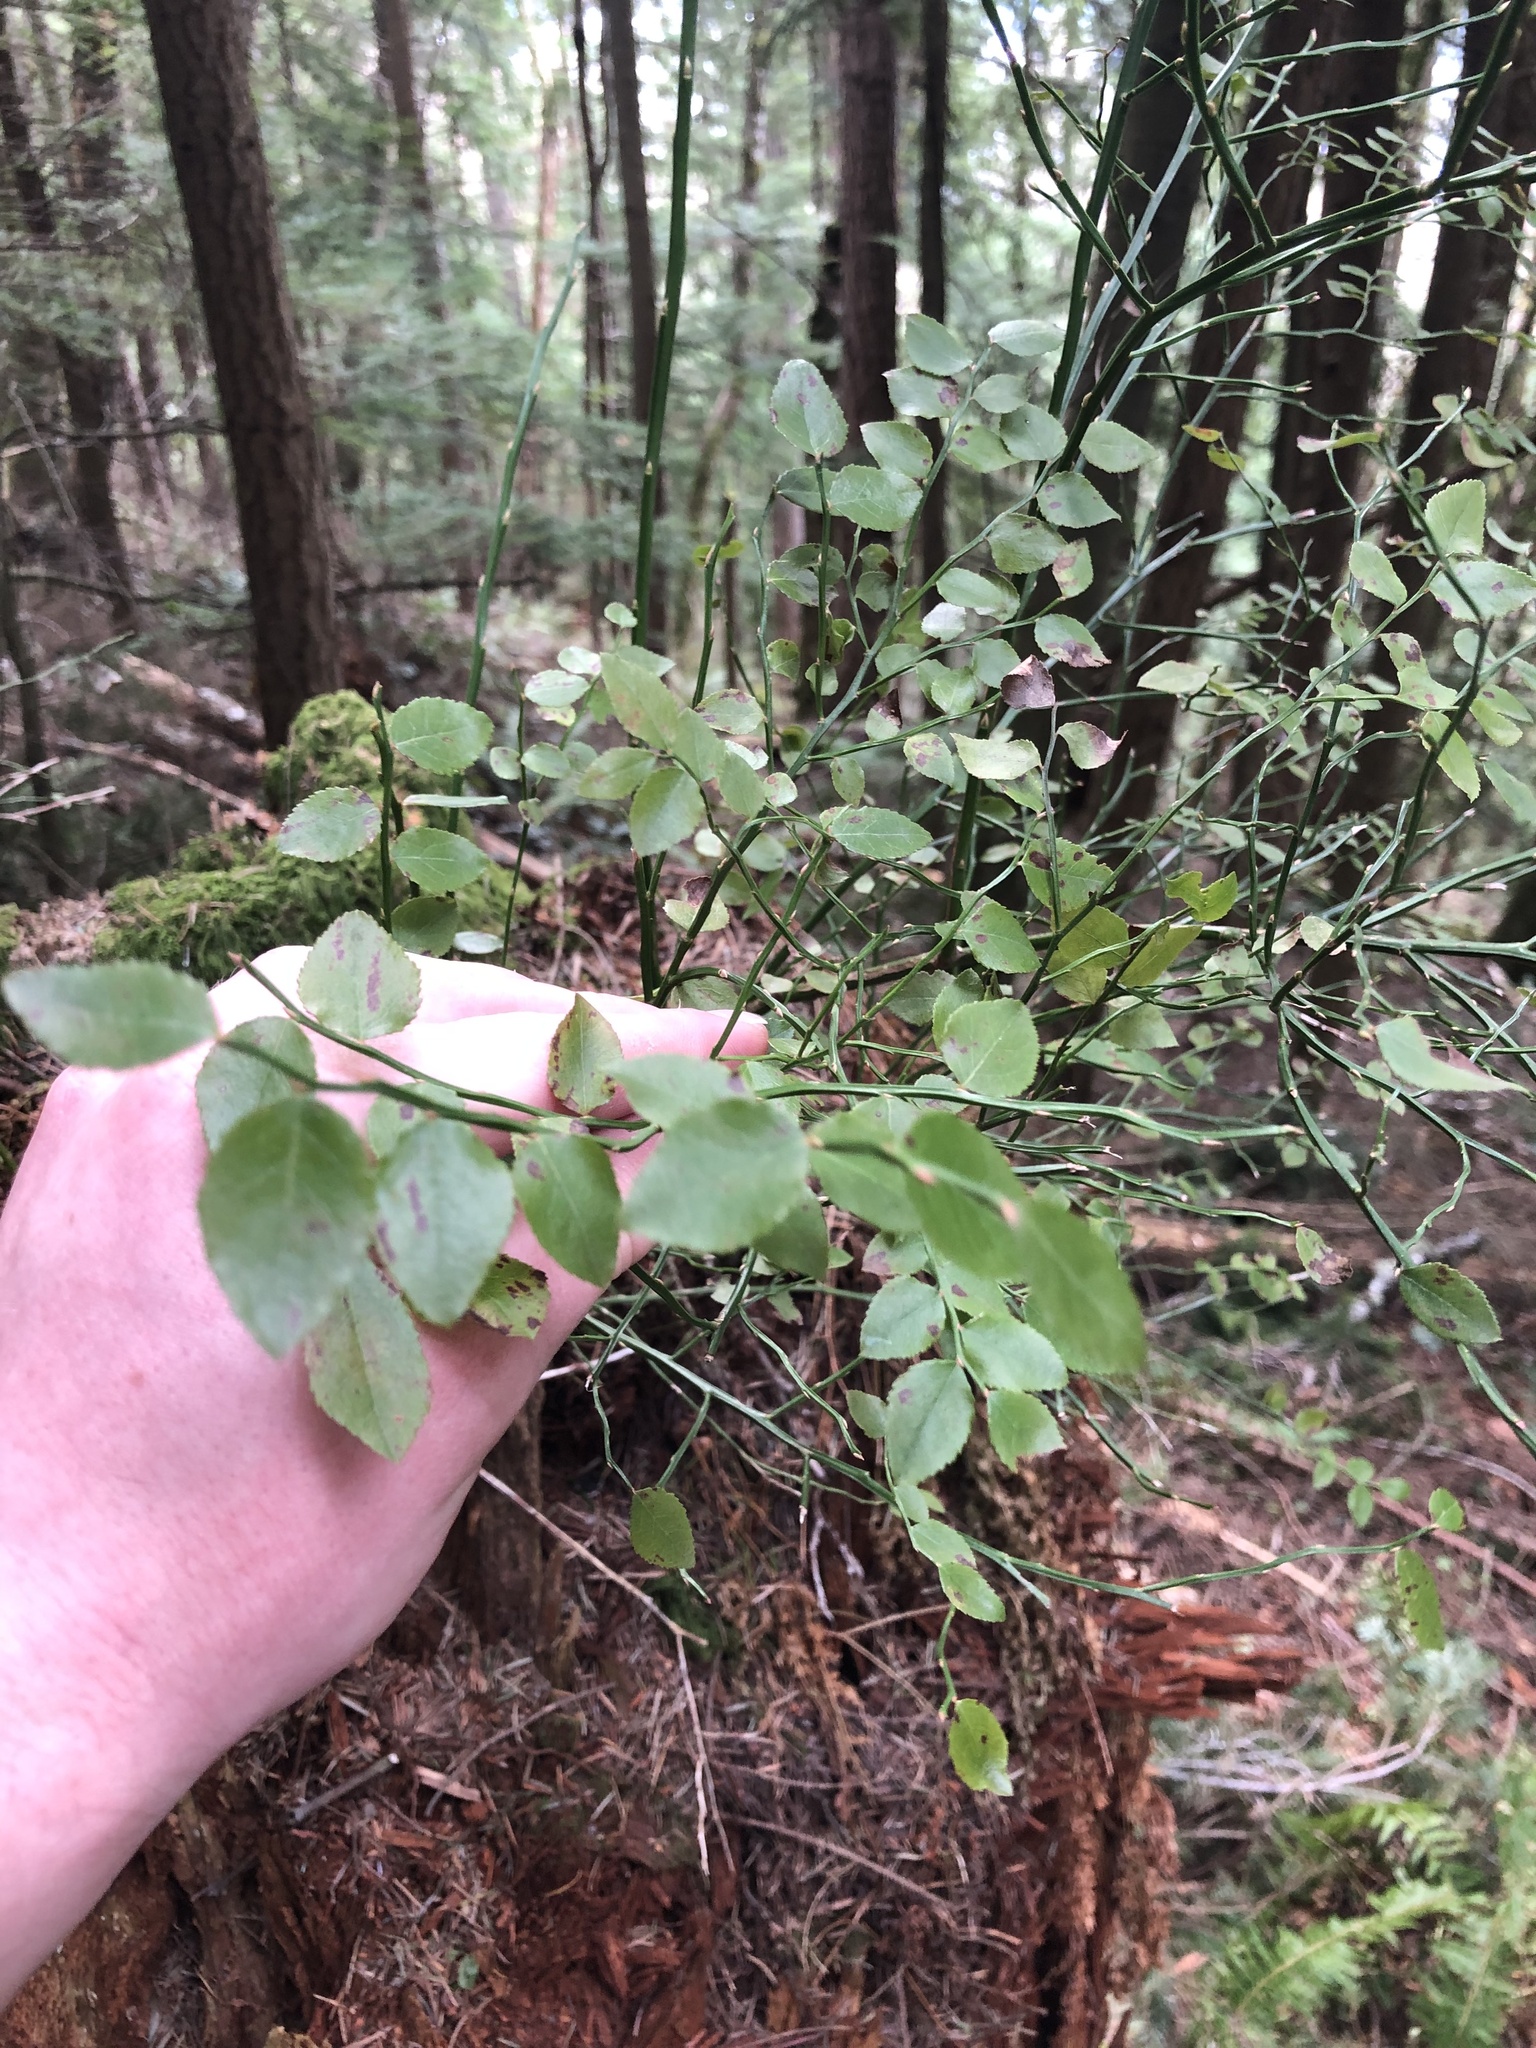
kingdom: Plantae
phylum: Tracheophyta
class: Magnoliopsida
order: Ericales
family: Ericaceae
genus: Vaccinium
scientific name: Vaccinium parvifolium
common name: Red-huckleberry
